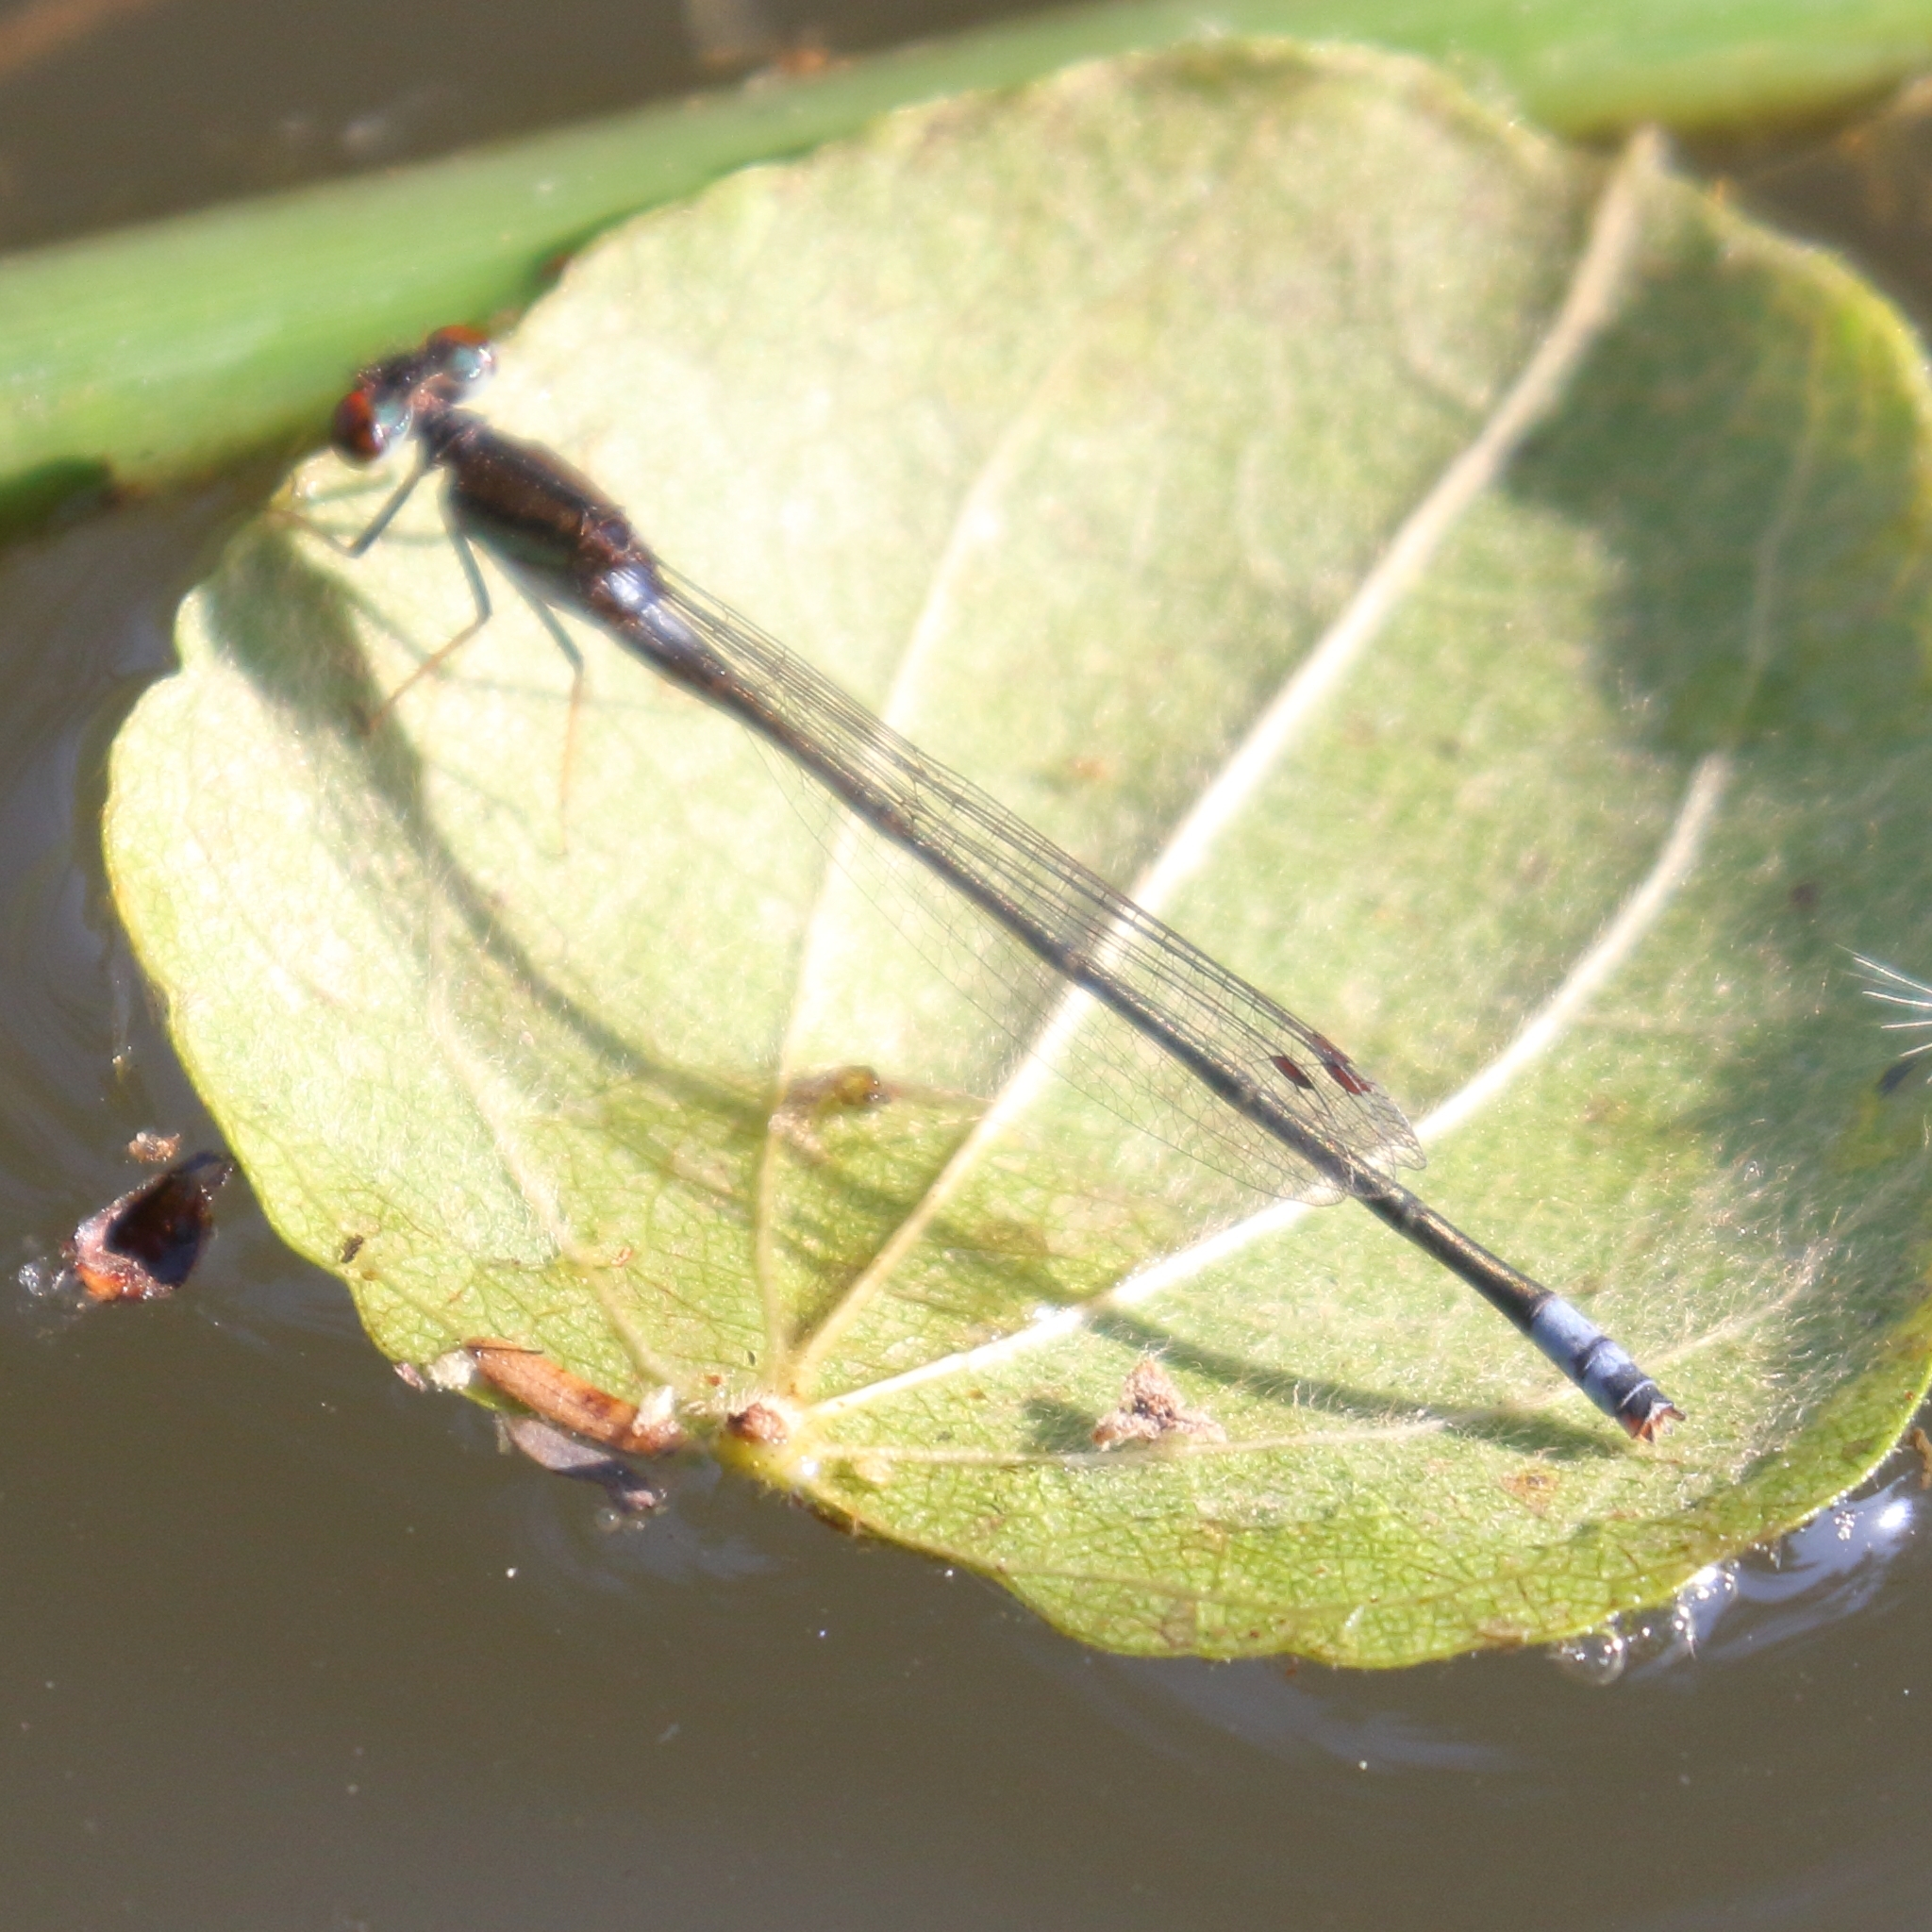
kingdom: Animalia
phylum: Arthropoda
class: Insecta
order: Odonata
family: Coenagrionidae
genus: Pseudagrion
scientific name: Pseudagrion hamoni
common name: Swarthy sprite
